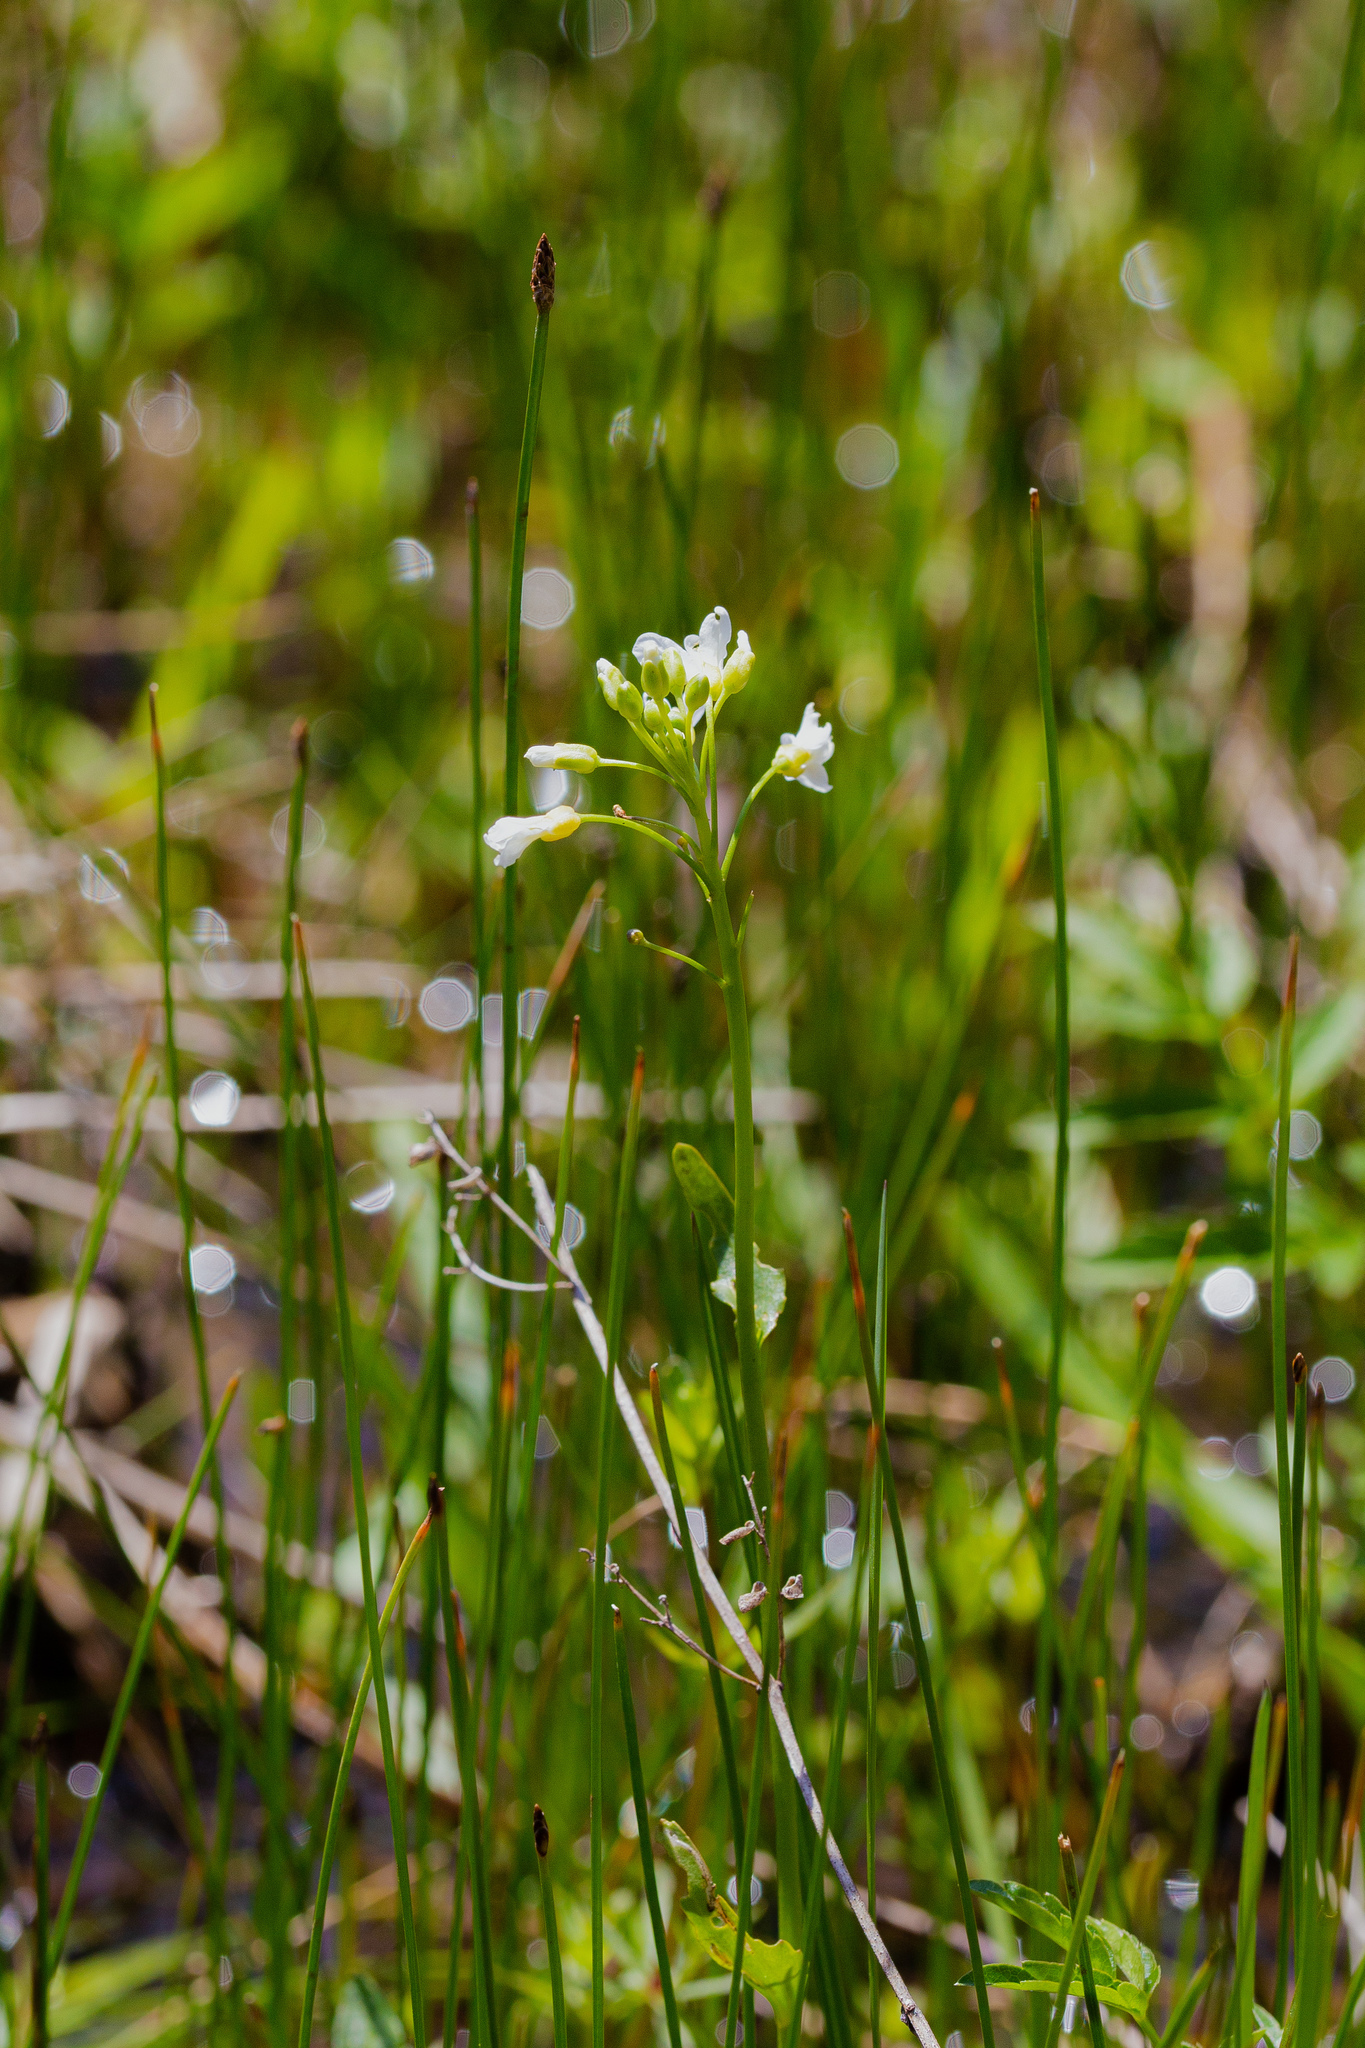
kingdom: Plantae
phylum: Tracheophyta
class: Magnoliopsida
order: Brassicales
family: Brassicaceae
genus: Cardamine
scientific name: Cardamine bulbosa
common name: Spring cress
